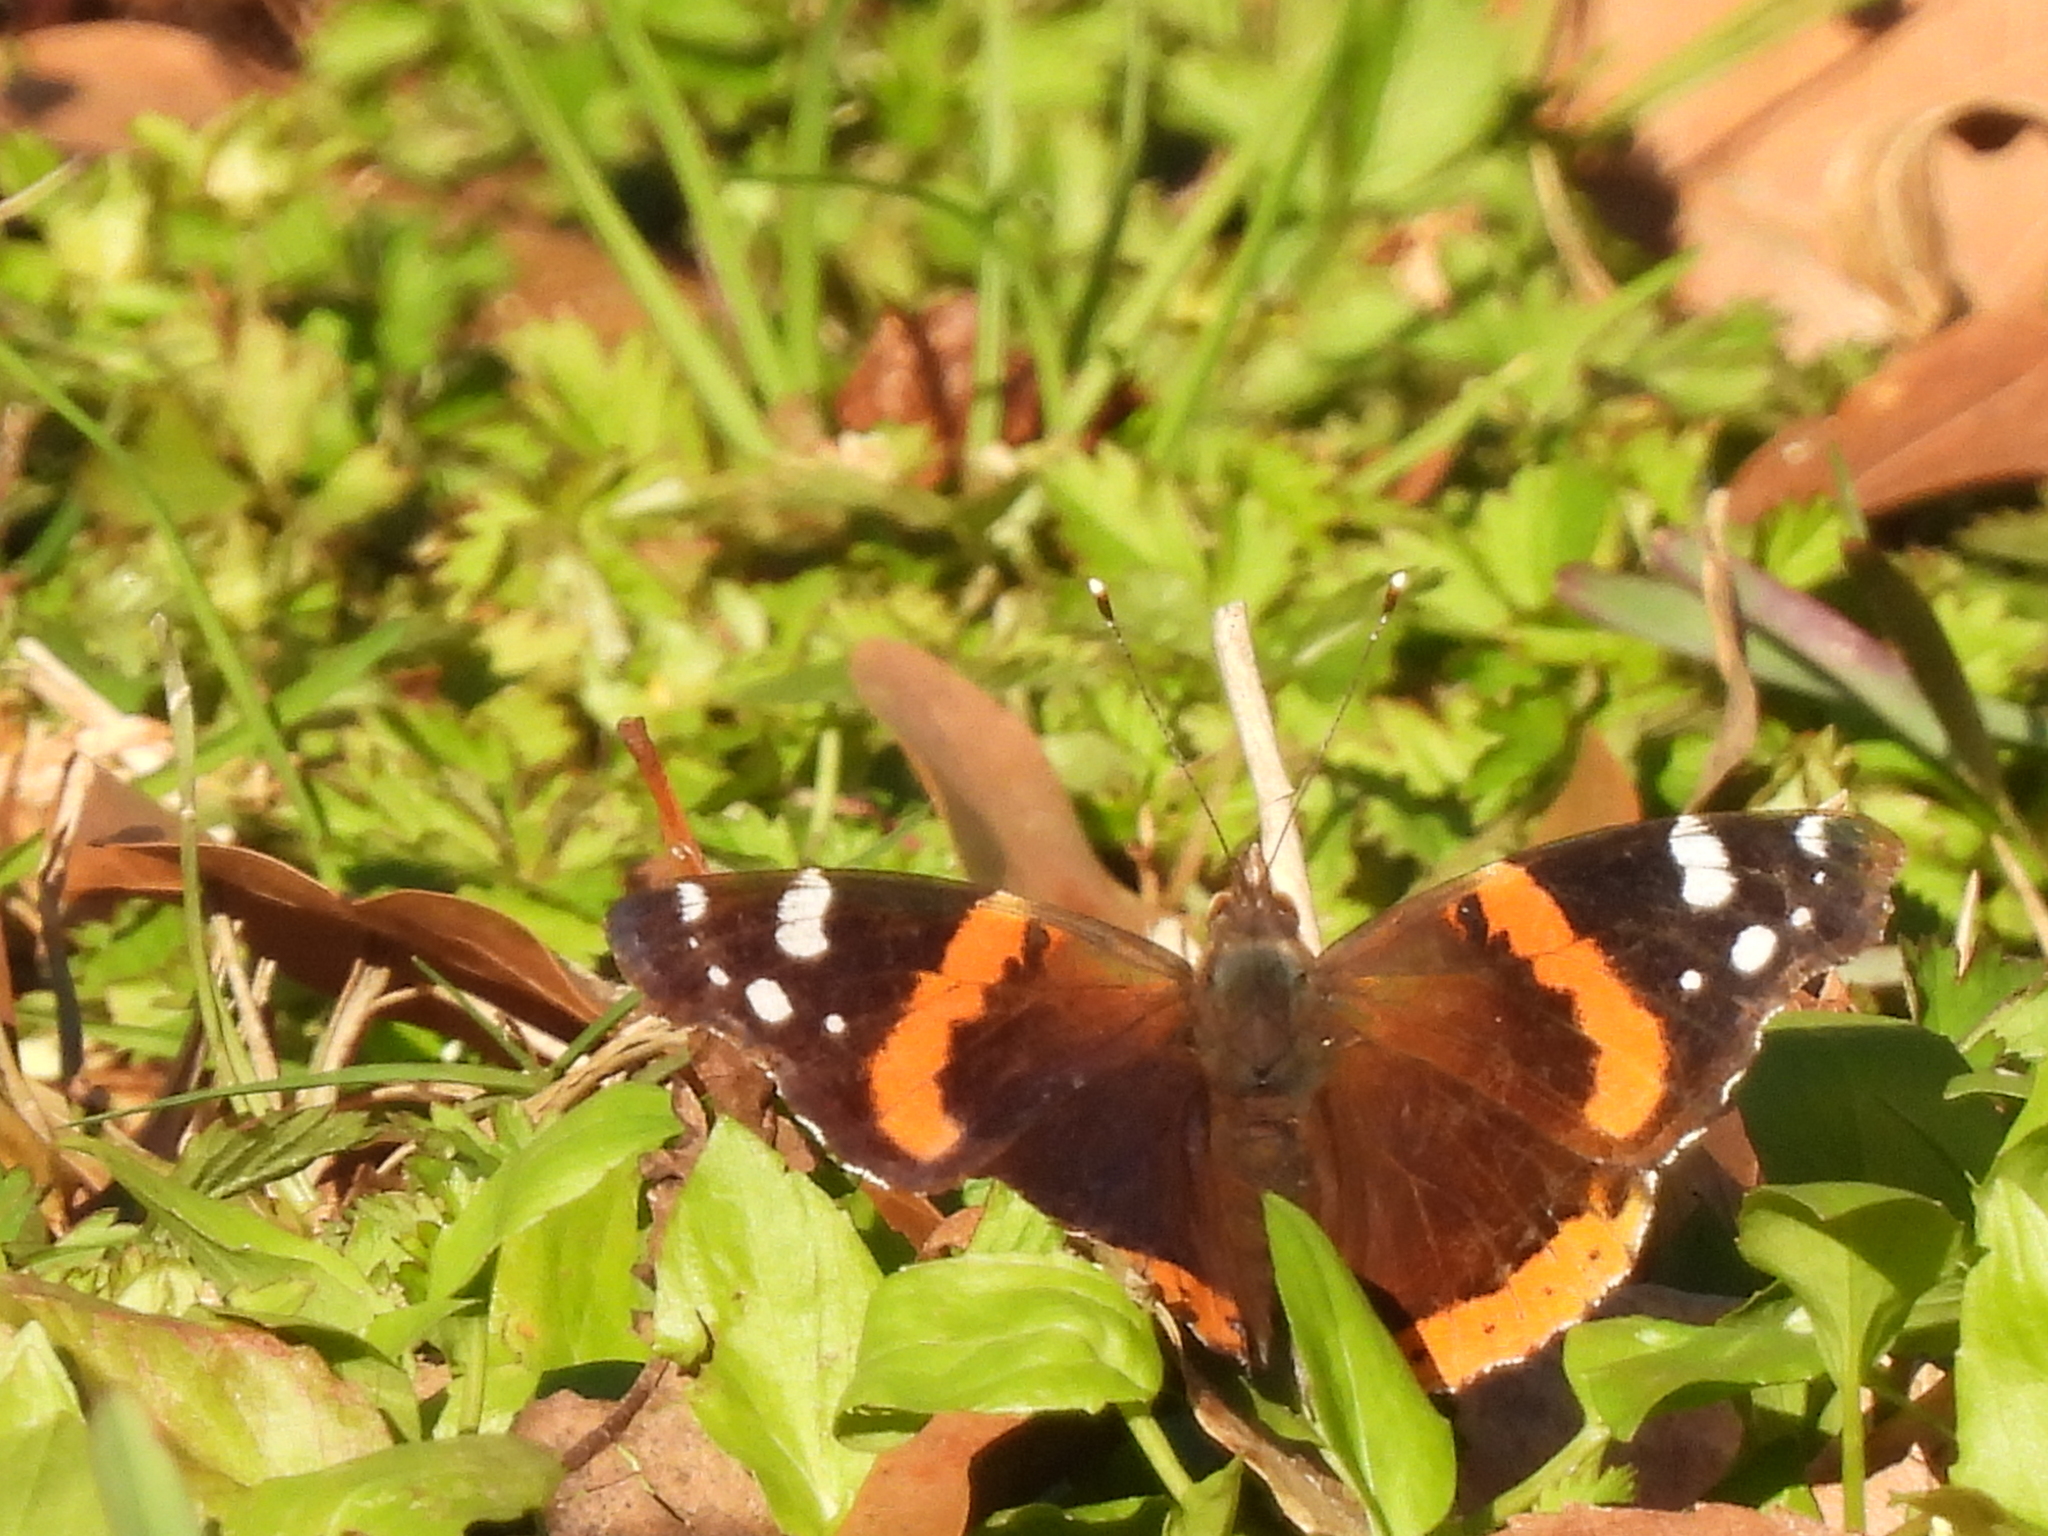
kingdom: Animalia
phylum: Arthropoda
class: Insecta
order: Lepidoptera
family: Nymphalidae
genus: Vanessa
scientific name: Vanessa atalanta
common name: Red admiral
